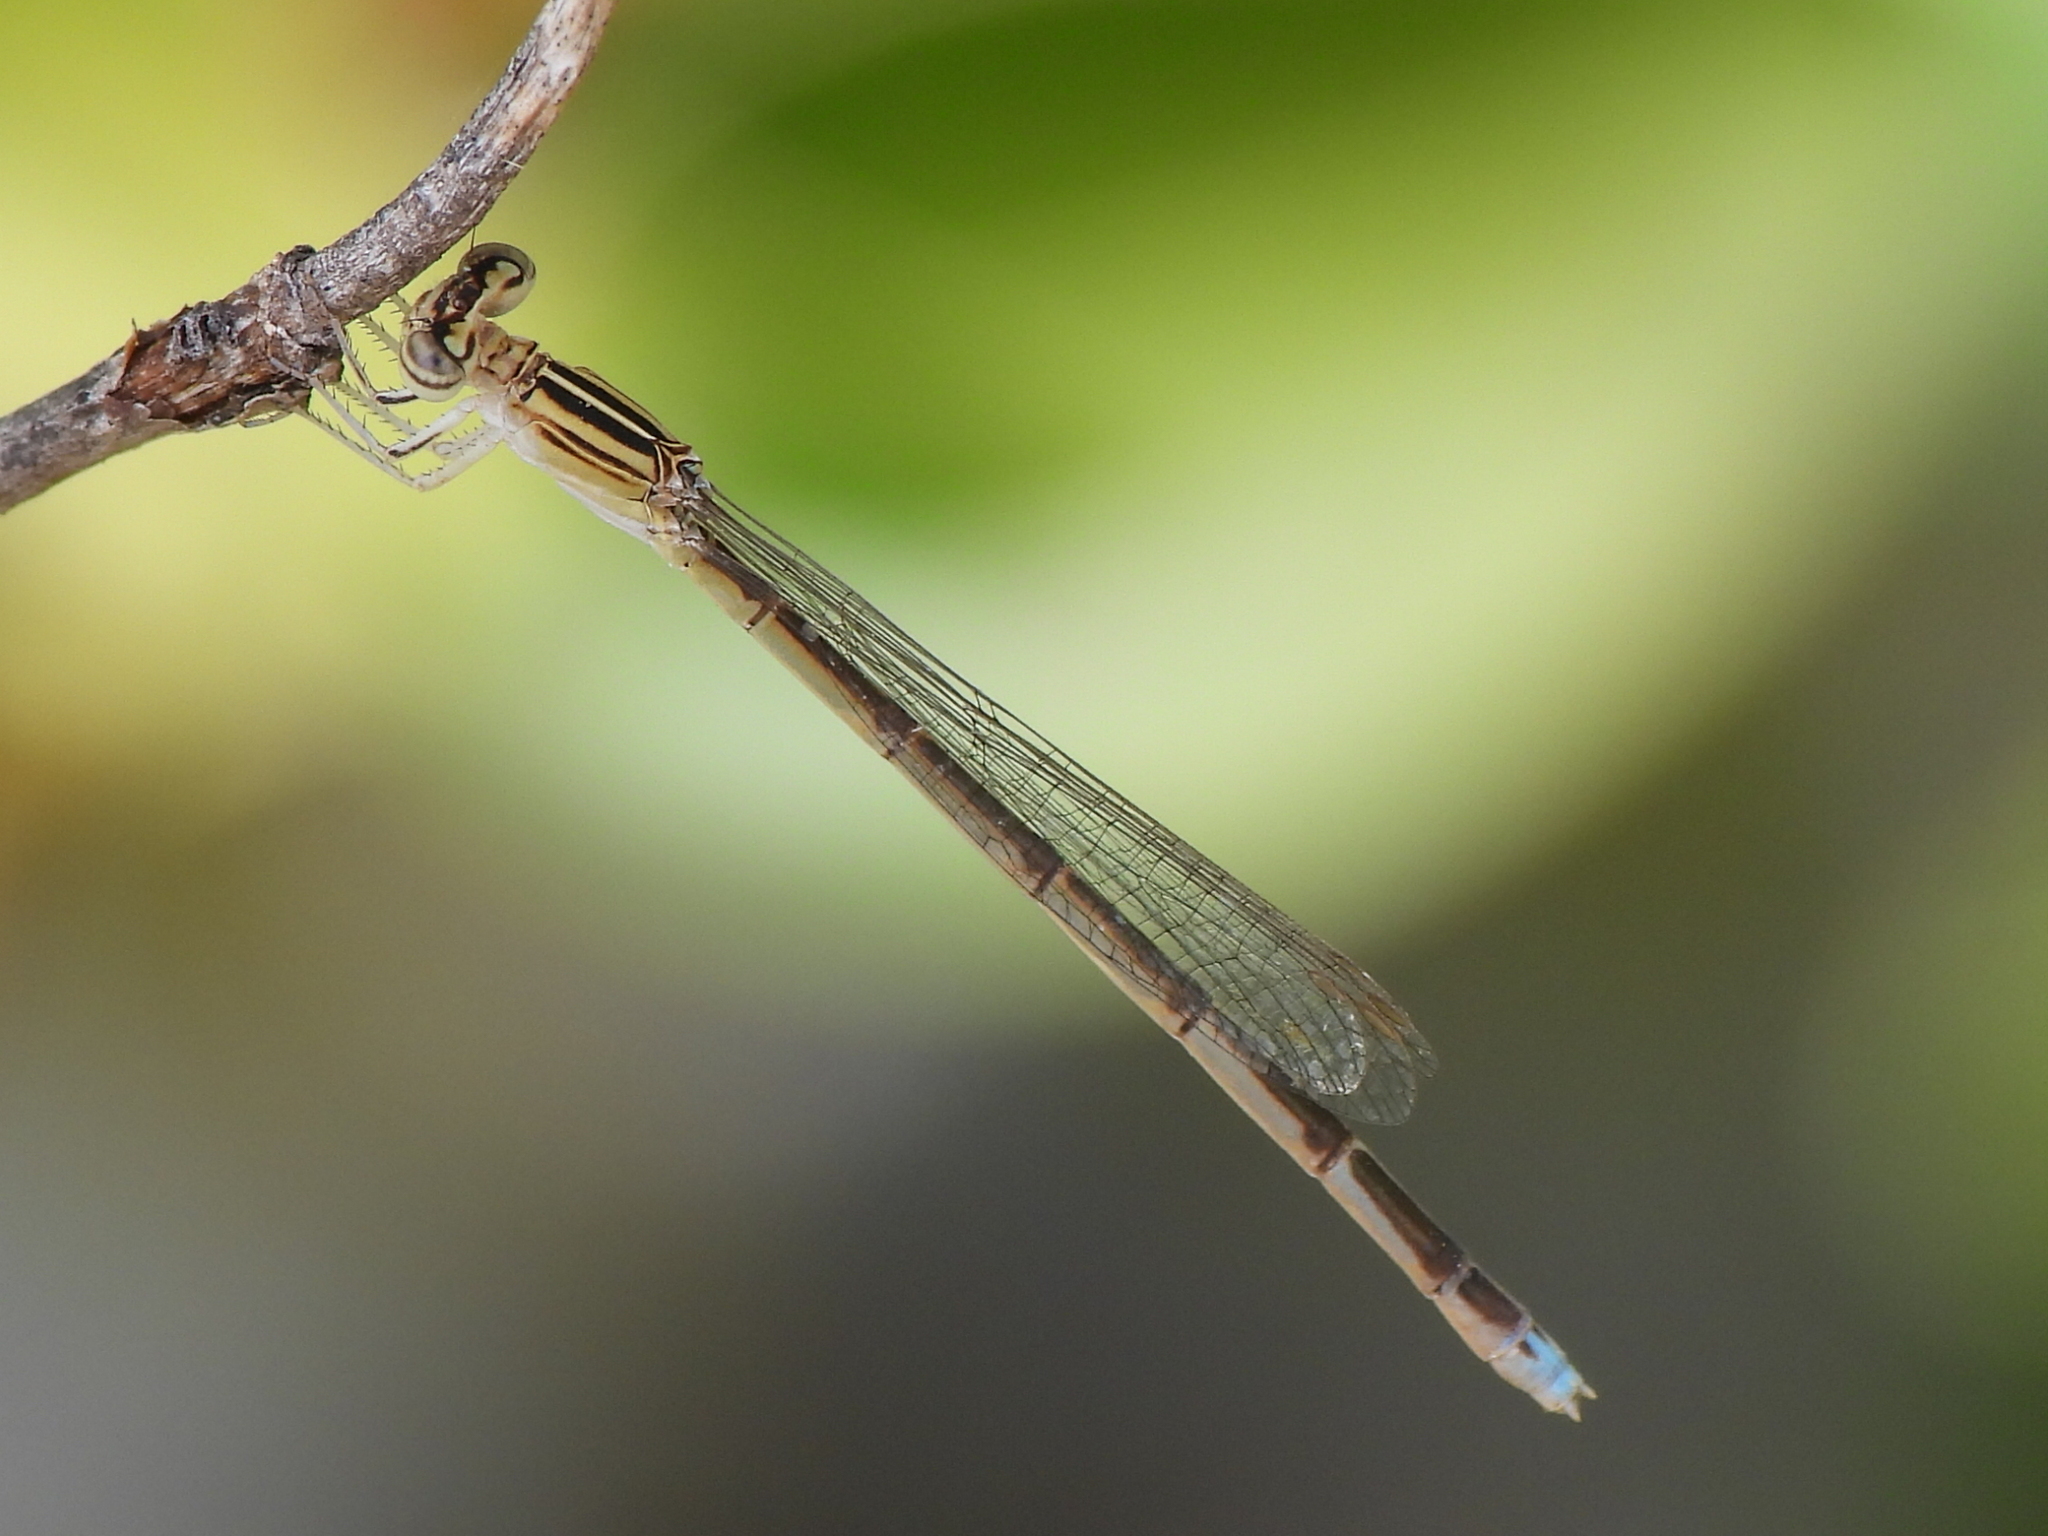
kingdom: Animalia
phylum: Arthropoda
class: Insecta
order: Odonata
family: Coenagrionidae
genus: Enallagma
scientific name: Enallagma basidens
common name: Double-striped bluet
